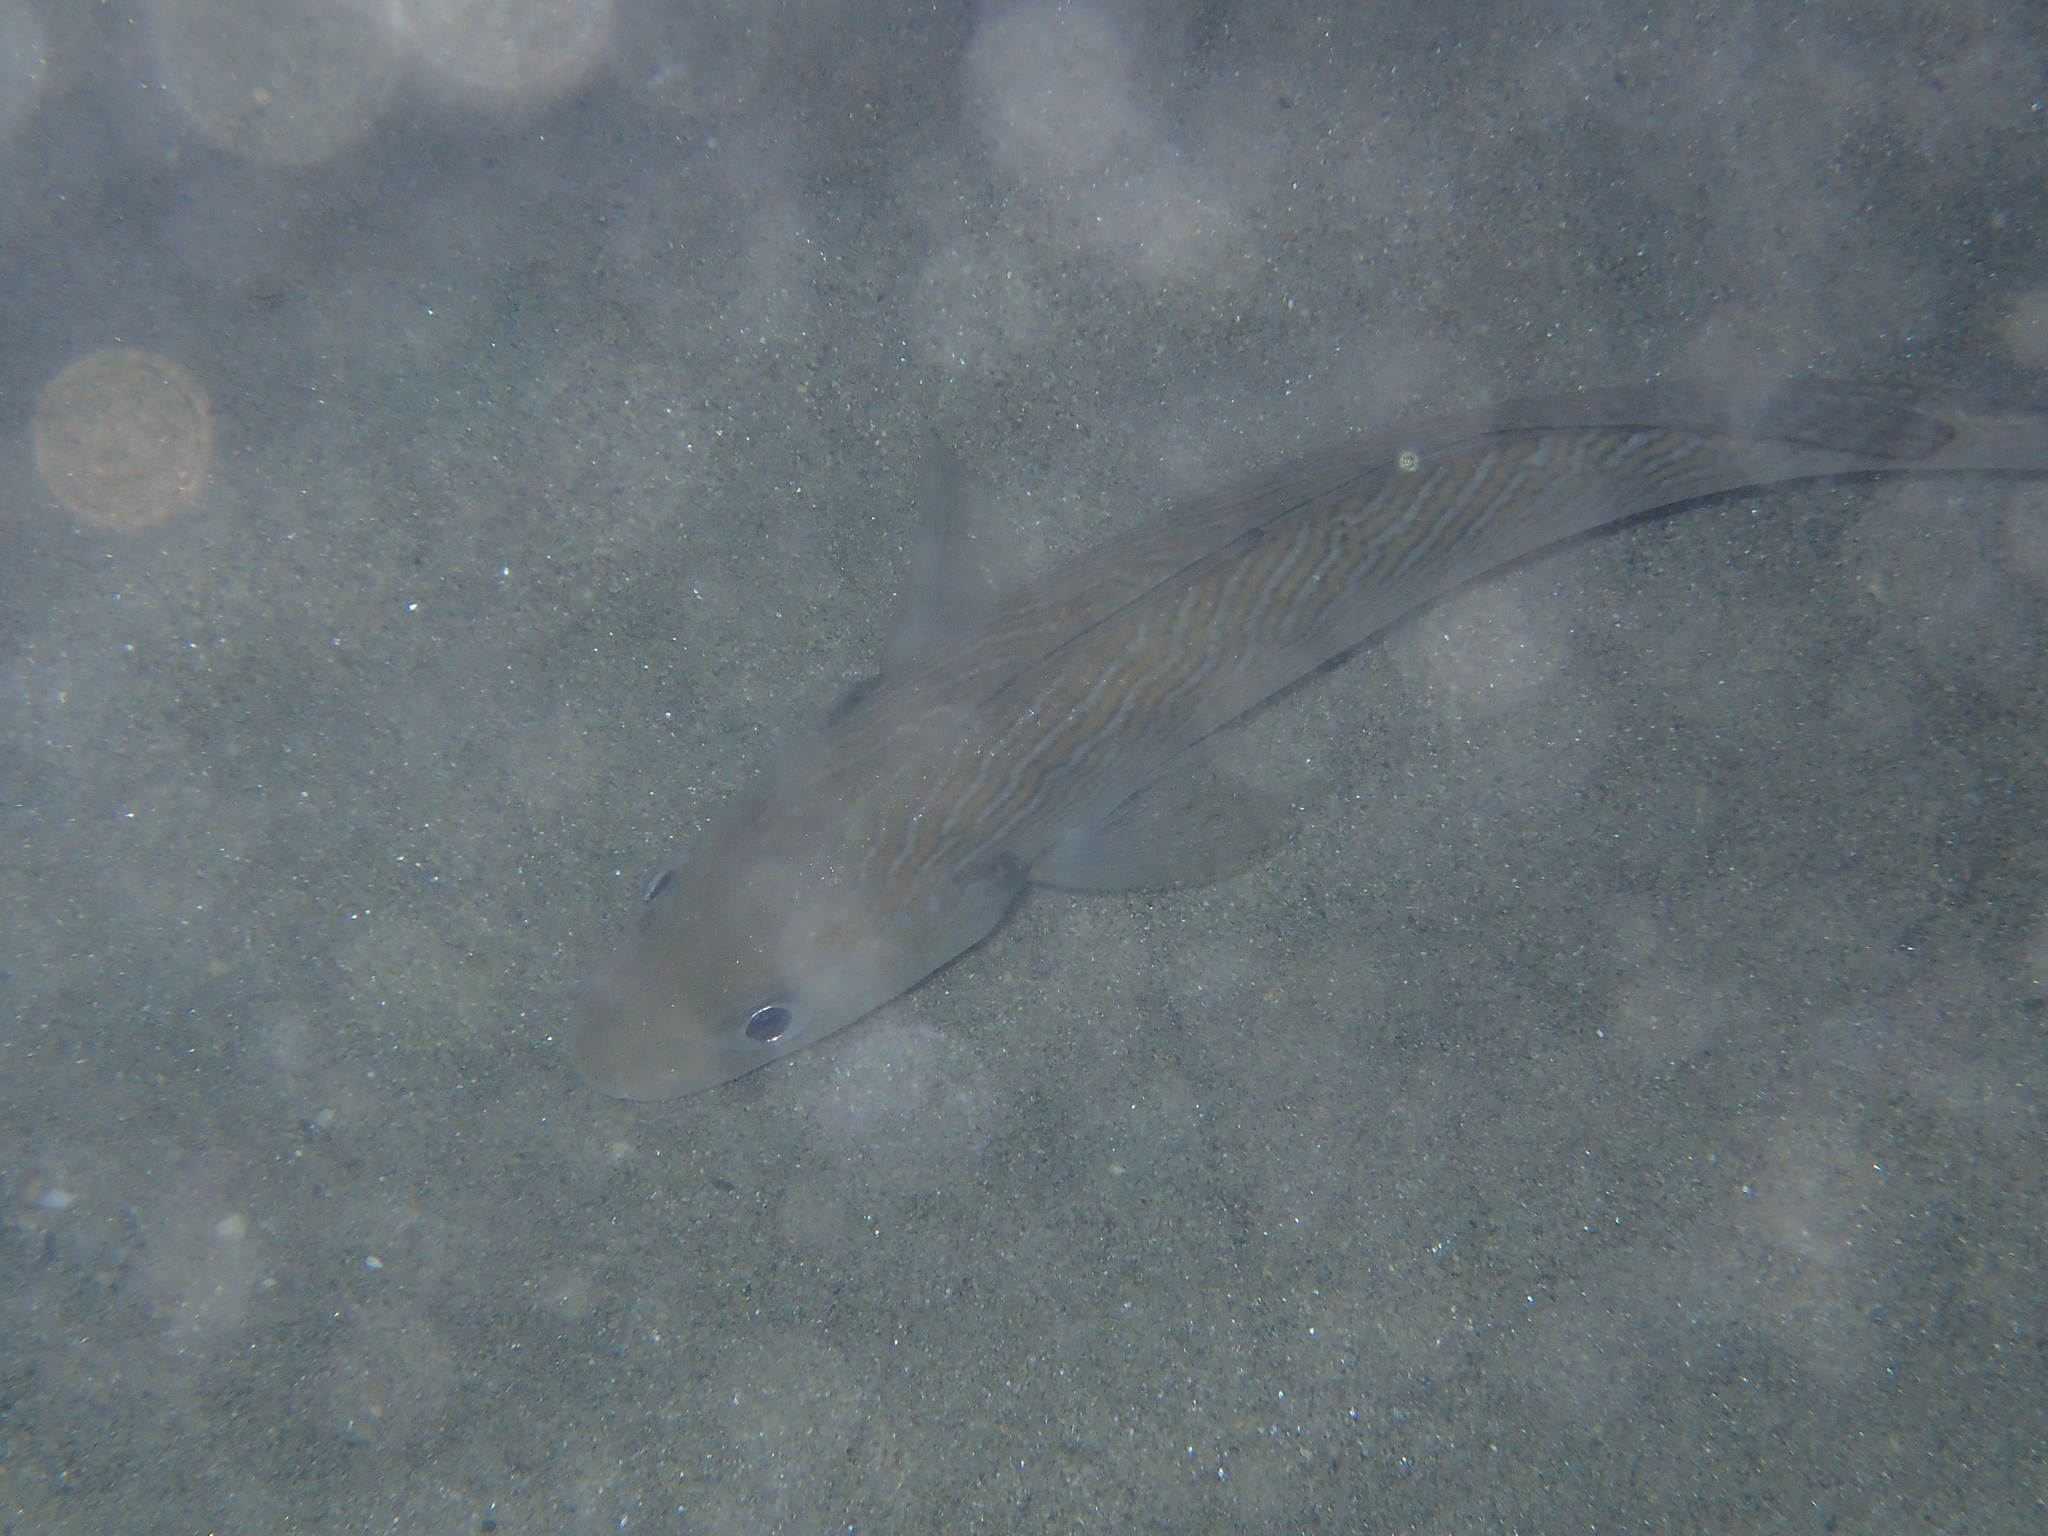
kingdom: Animalia
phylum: Chordata
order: Perciformes
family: Sciaenidae
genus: Umbrina
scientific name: Umbrina cirrosa
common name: Shi drum
